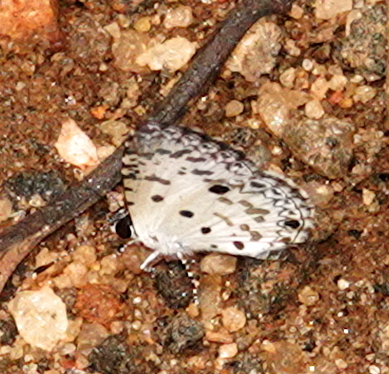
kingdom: Animalia
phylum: Arthropoda
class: Insecta
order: Lepidoptera
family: Lycaenidae
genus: Megisba
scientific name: Megisba malaya
